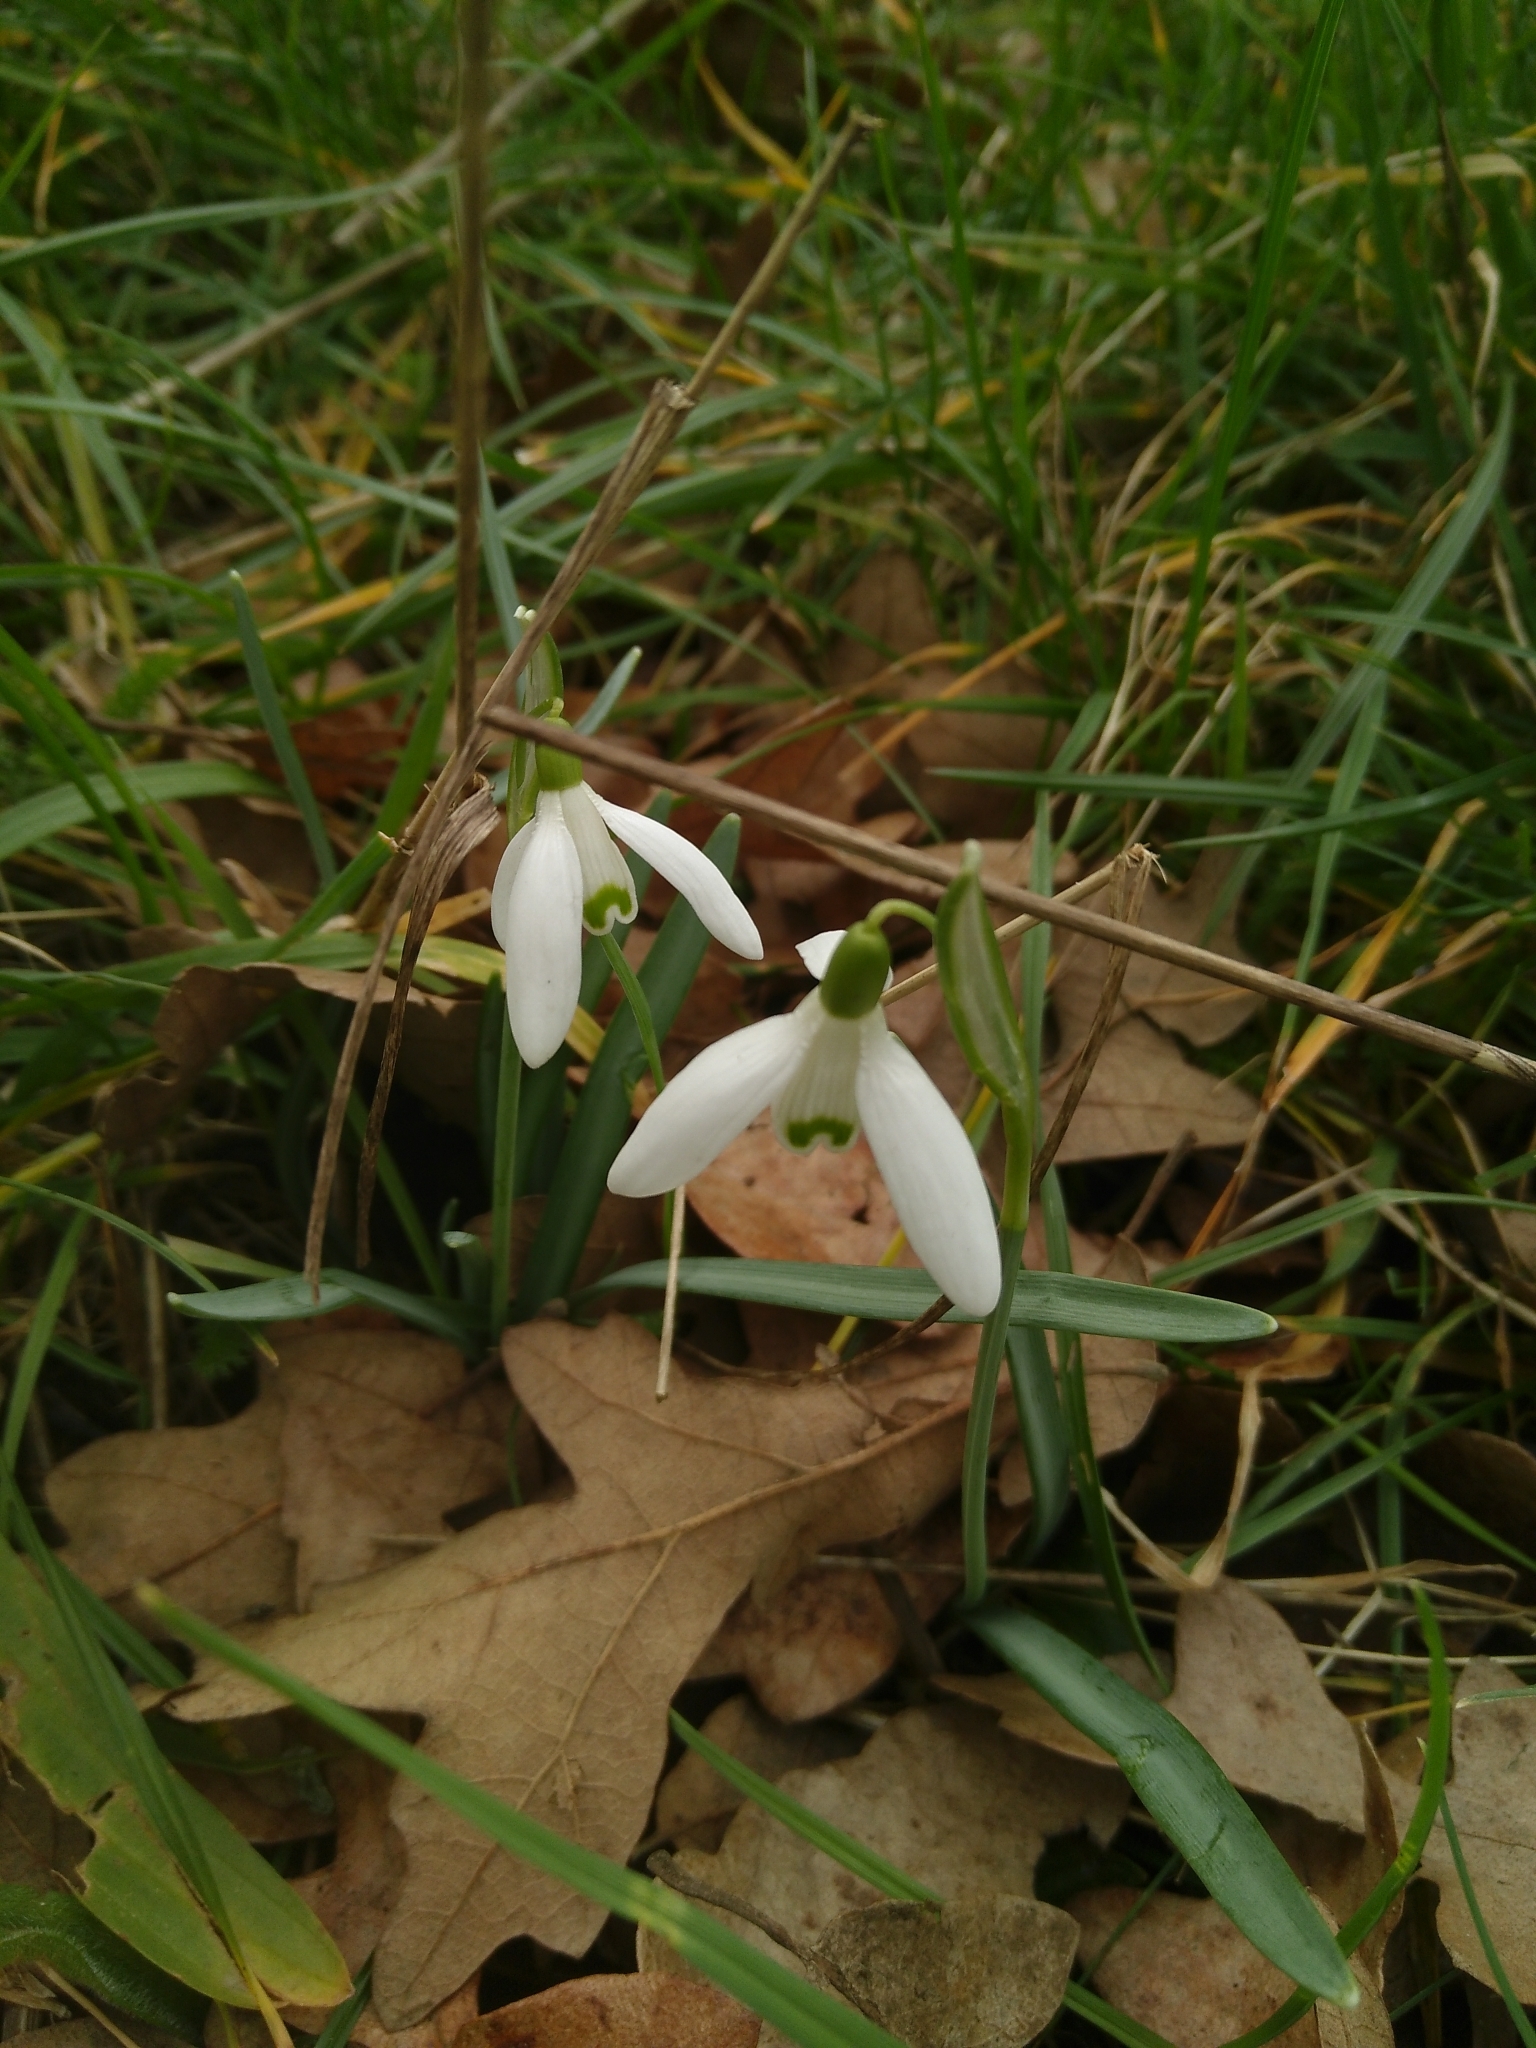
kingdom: Plantae
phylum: Tracheophyta
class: Liliopsida
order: Asparagales
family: Amaryllidaceae
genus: Galanthus
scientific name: Galanthus nivalis
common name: Snowdrop
